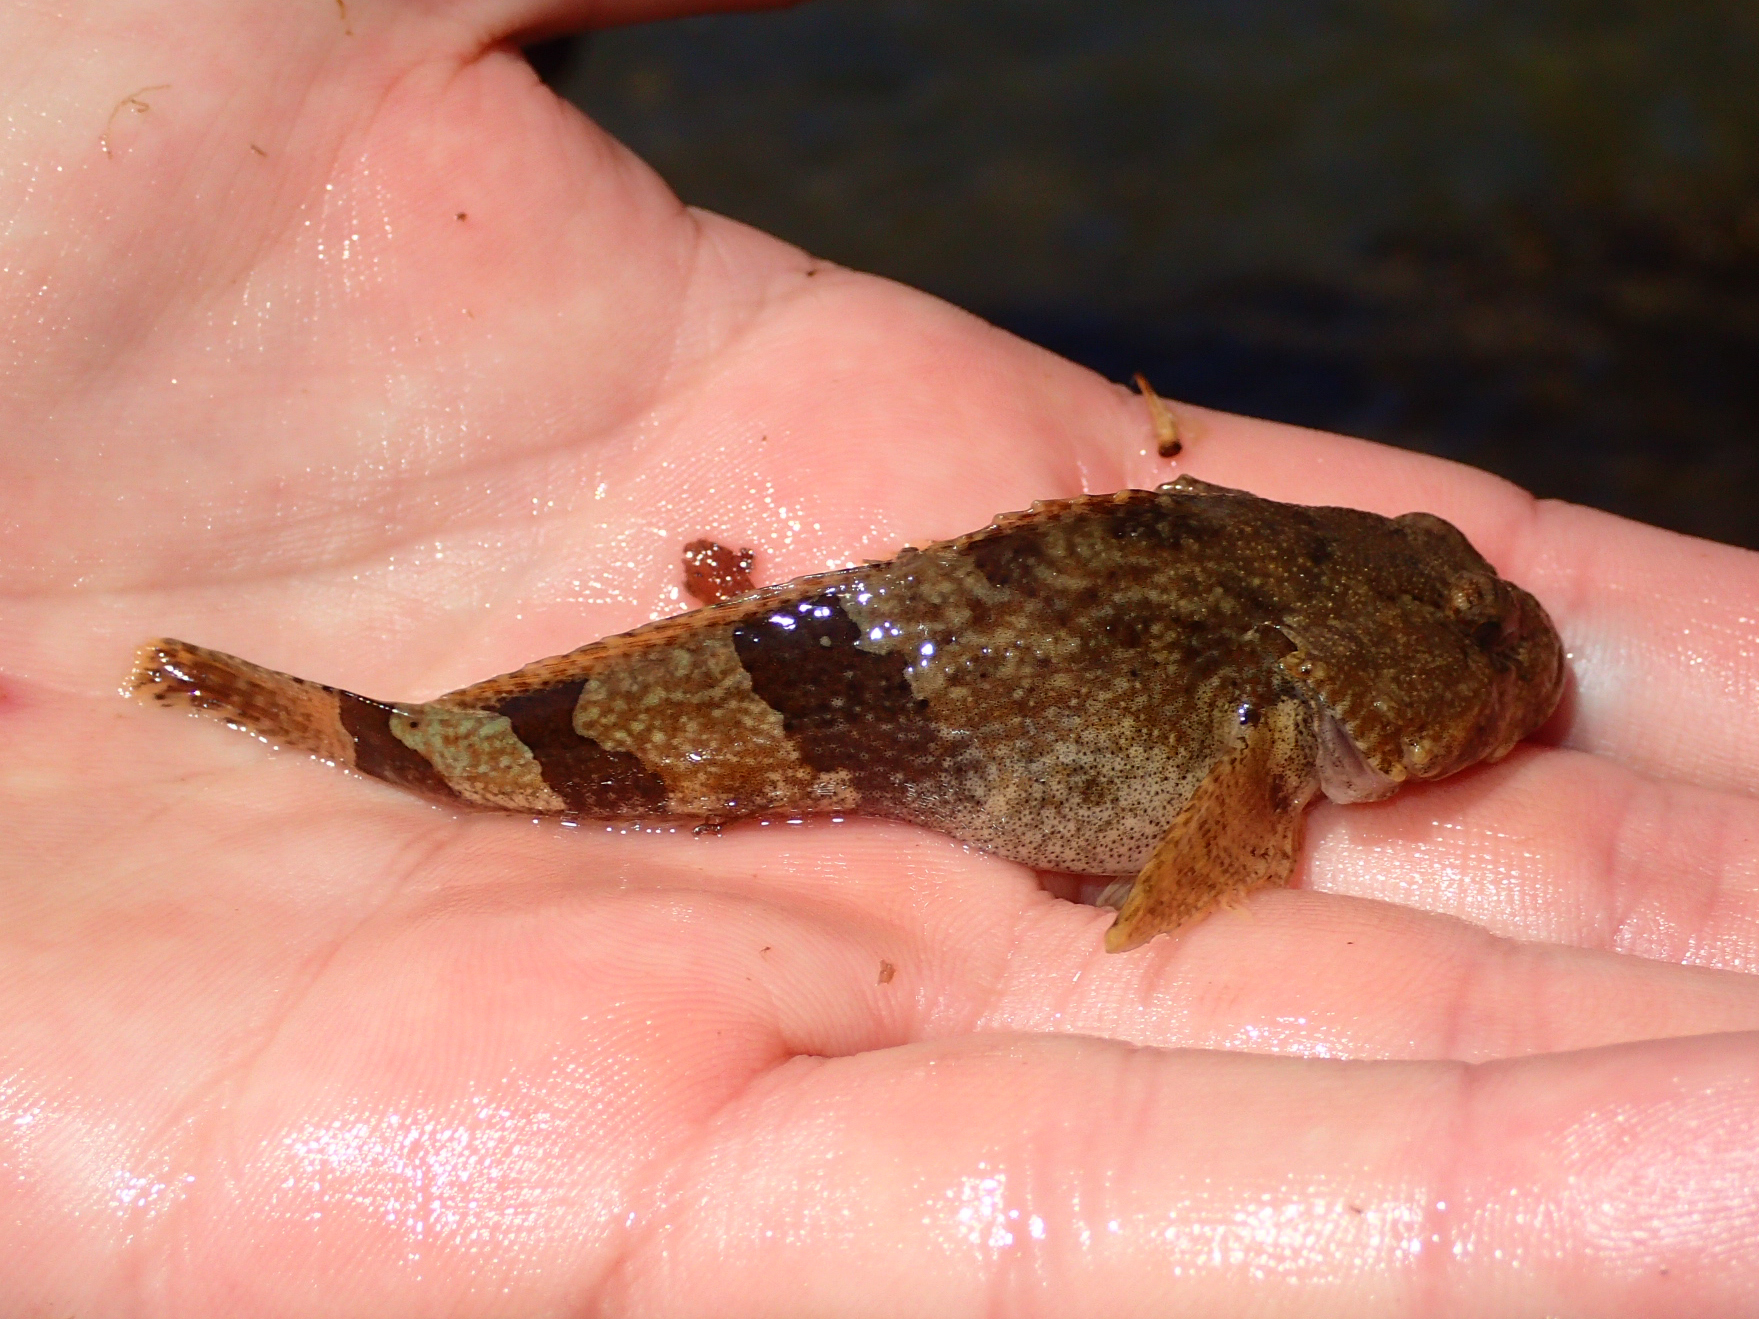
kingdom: Animalia
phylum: Chordata
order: Scorpaeniformes
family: Cottidae
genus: Cottus
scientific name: Cottus carolinae
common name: Banded sculpin
